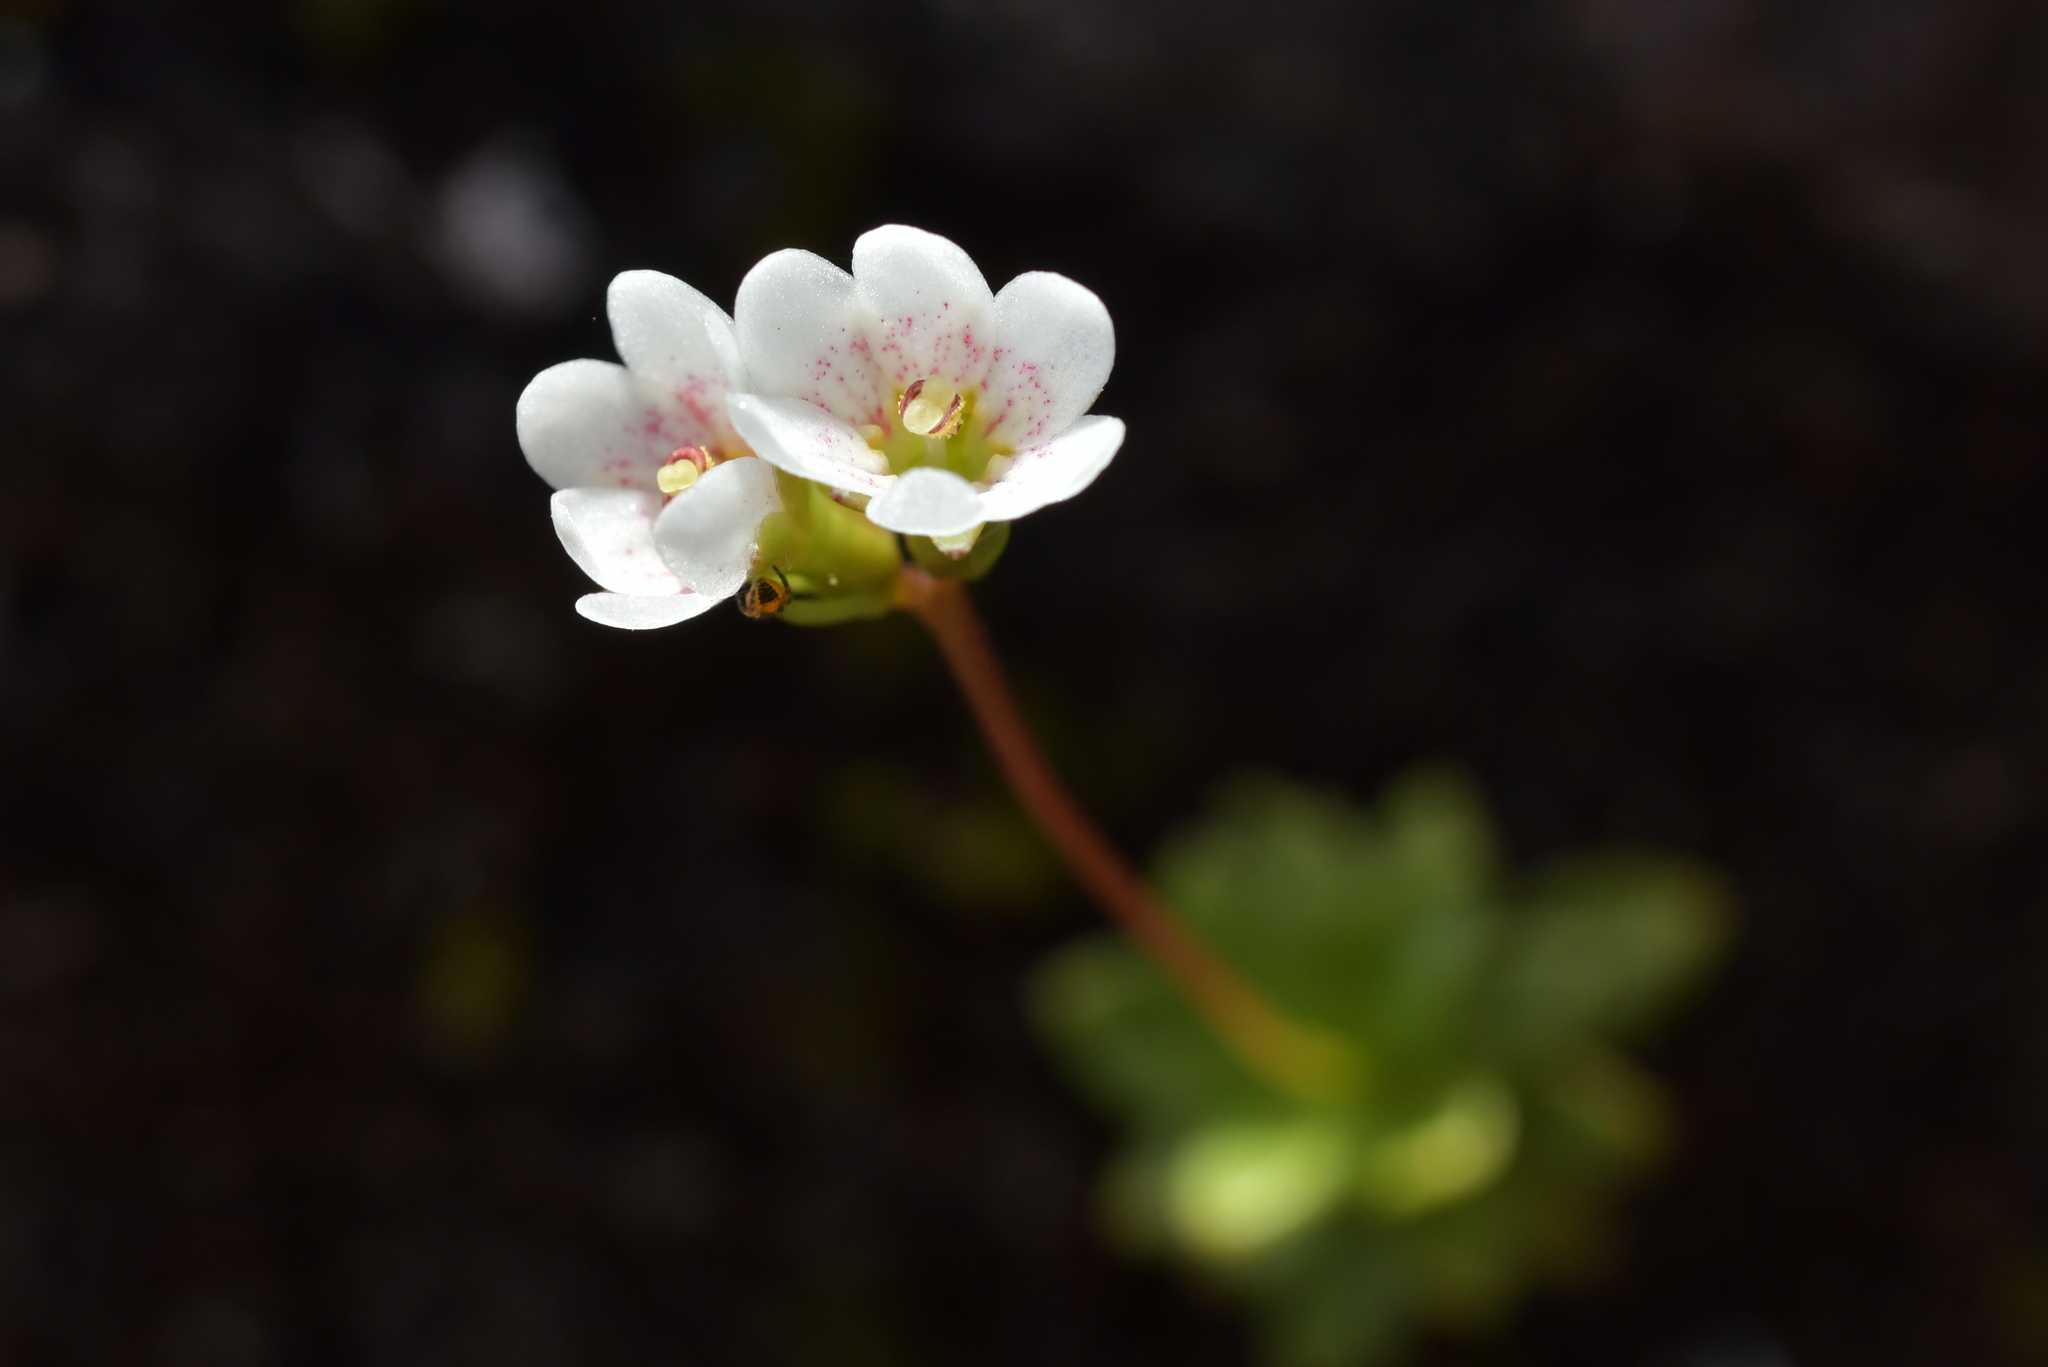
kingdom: Plantae
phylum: Tracheophyta
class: Magnoliopsida
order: Asterales
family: Stylidiaceae
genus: Forstera
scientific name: Forstera tenella
